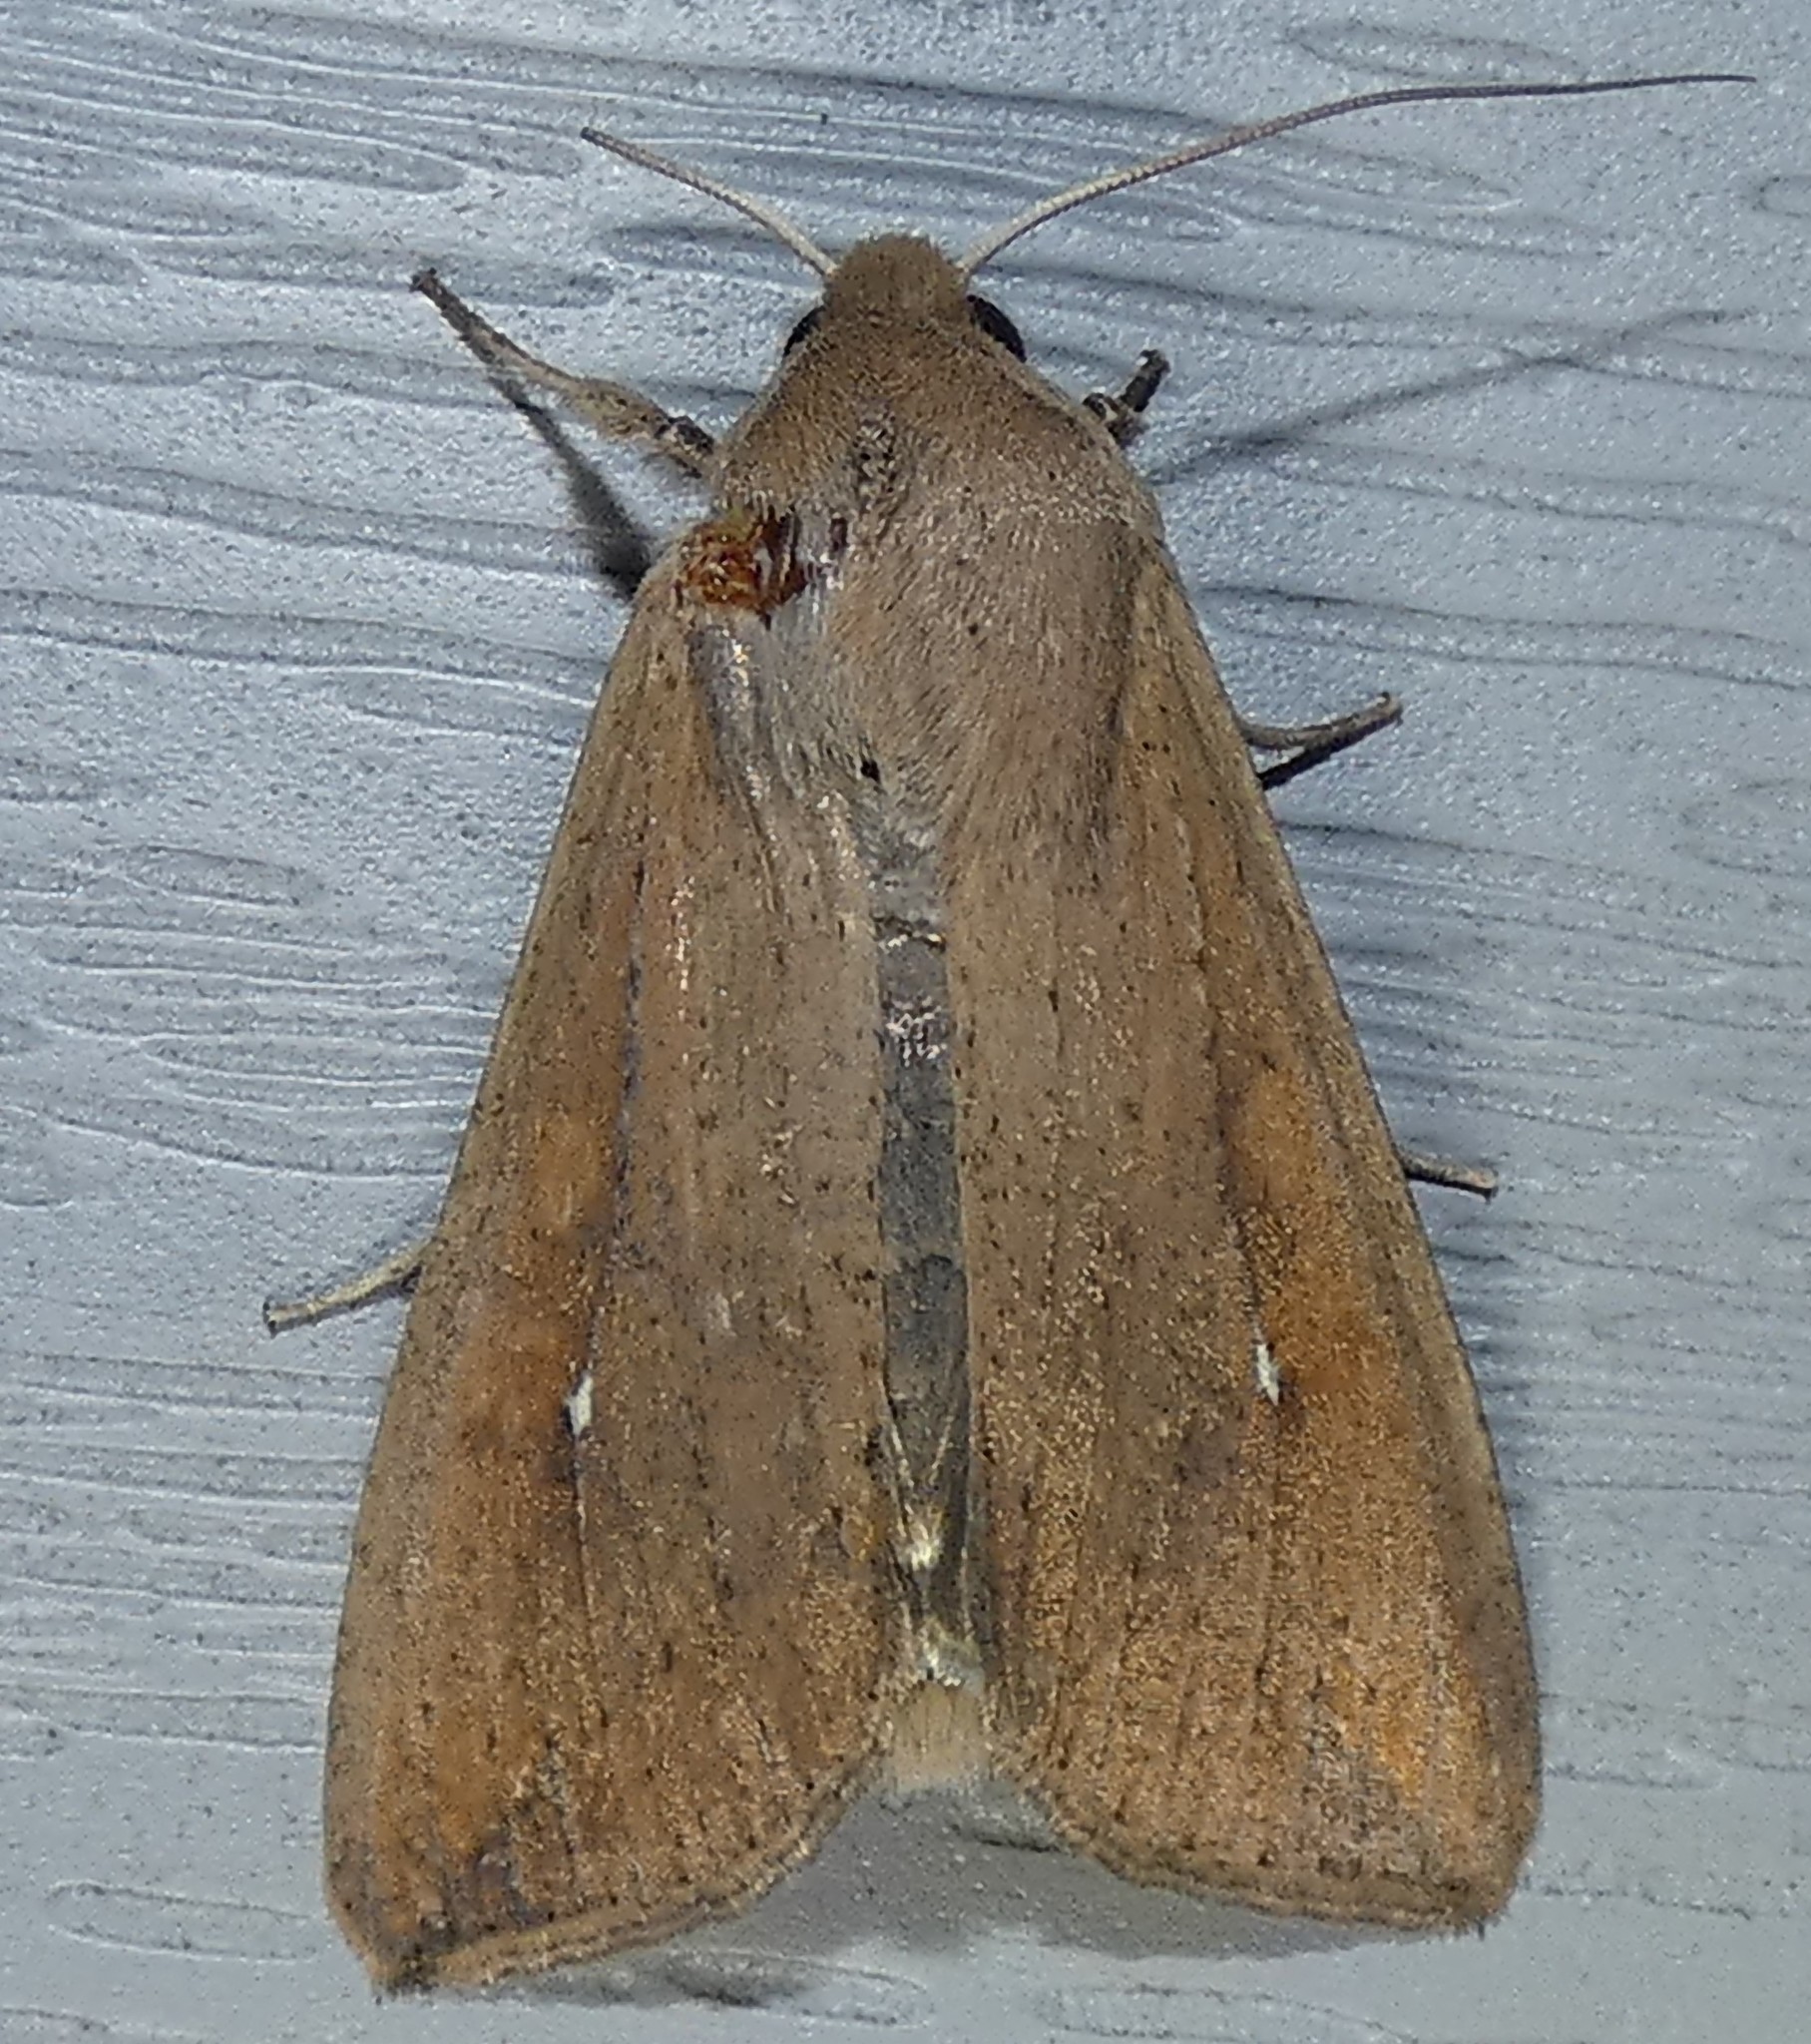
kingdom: Animalia
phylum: Arthropoda
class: Insecta
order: Lepidoptera
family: Noctuidae
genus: Mythimna
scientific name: Mythimna unipuncta
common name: White-speck
